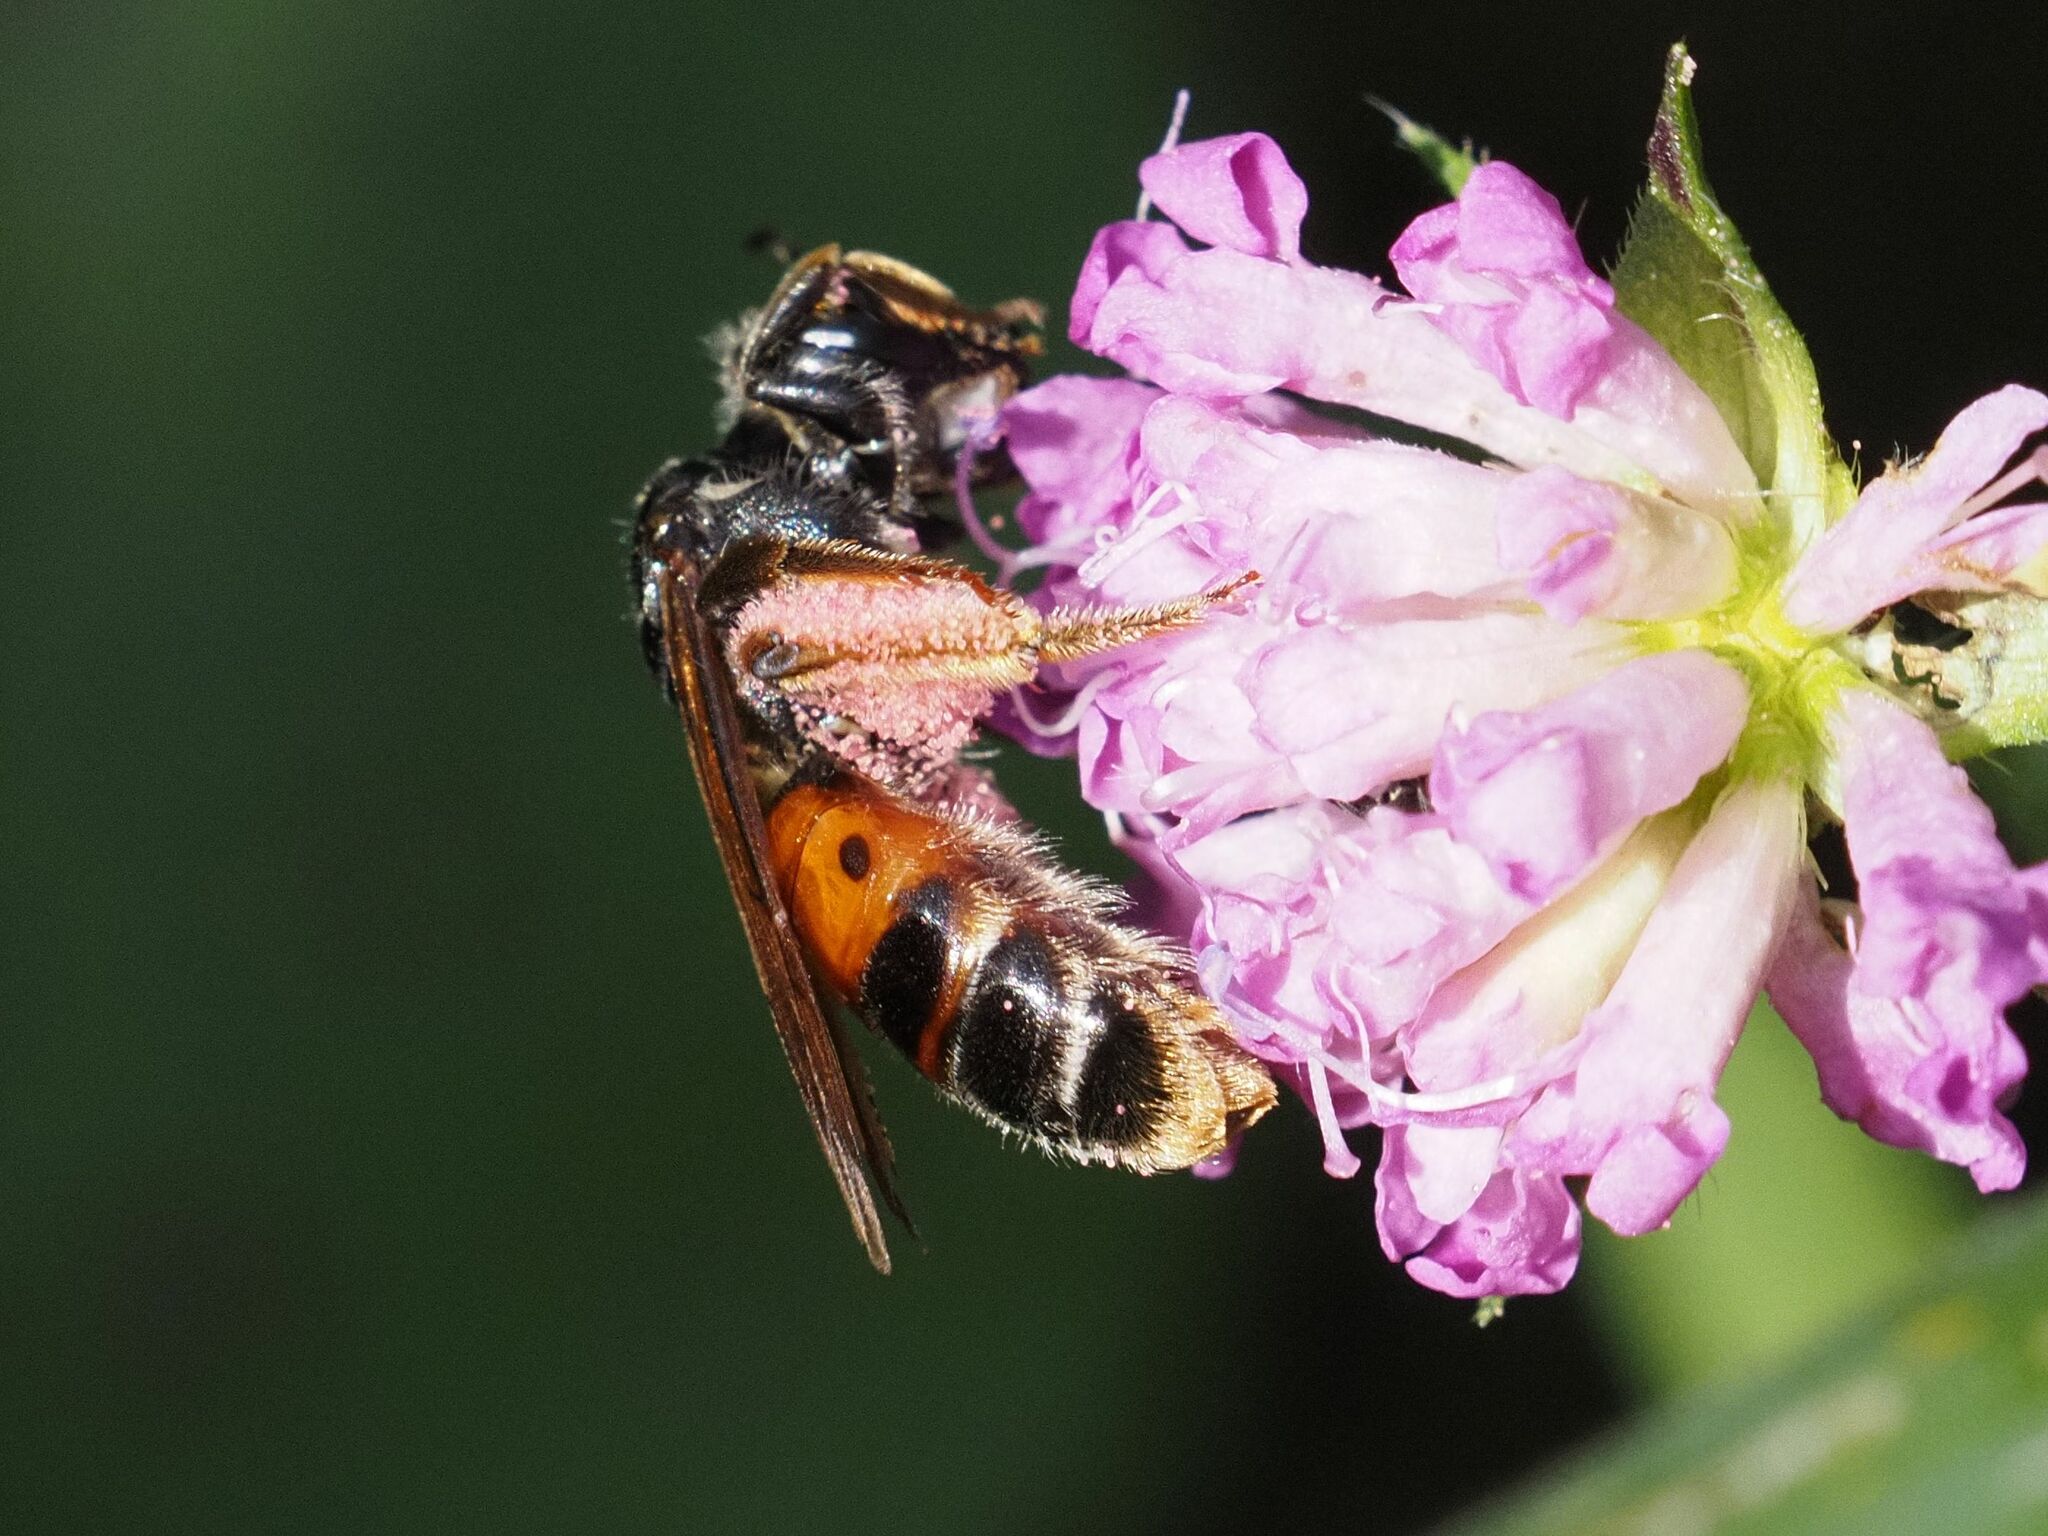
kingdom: Animalia
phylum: Arthropoda
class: Insecta
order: Hymenoptera
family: Andrenidae
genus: Andrena
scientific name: Andrena hattorfiana
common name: Large scabious mining bee
